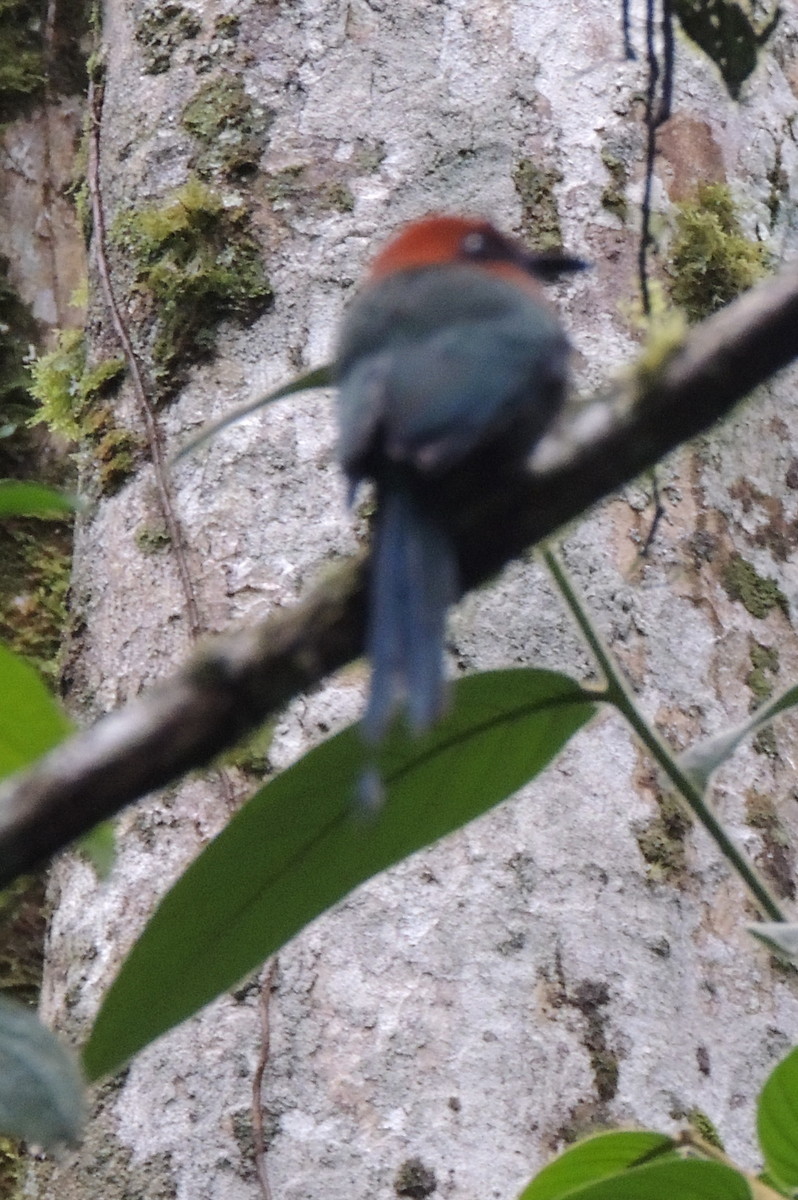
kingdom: Animalia
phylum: Chordata
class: Aves
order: Coraciiformes
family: Momotidae
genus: Electron
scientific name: Electron platyrhynchum
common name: Broad-billed motmot
